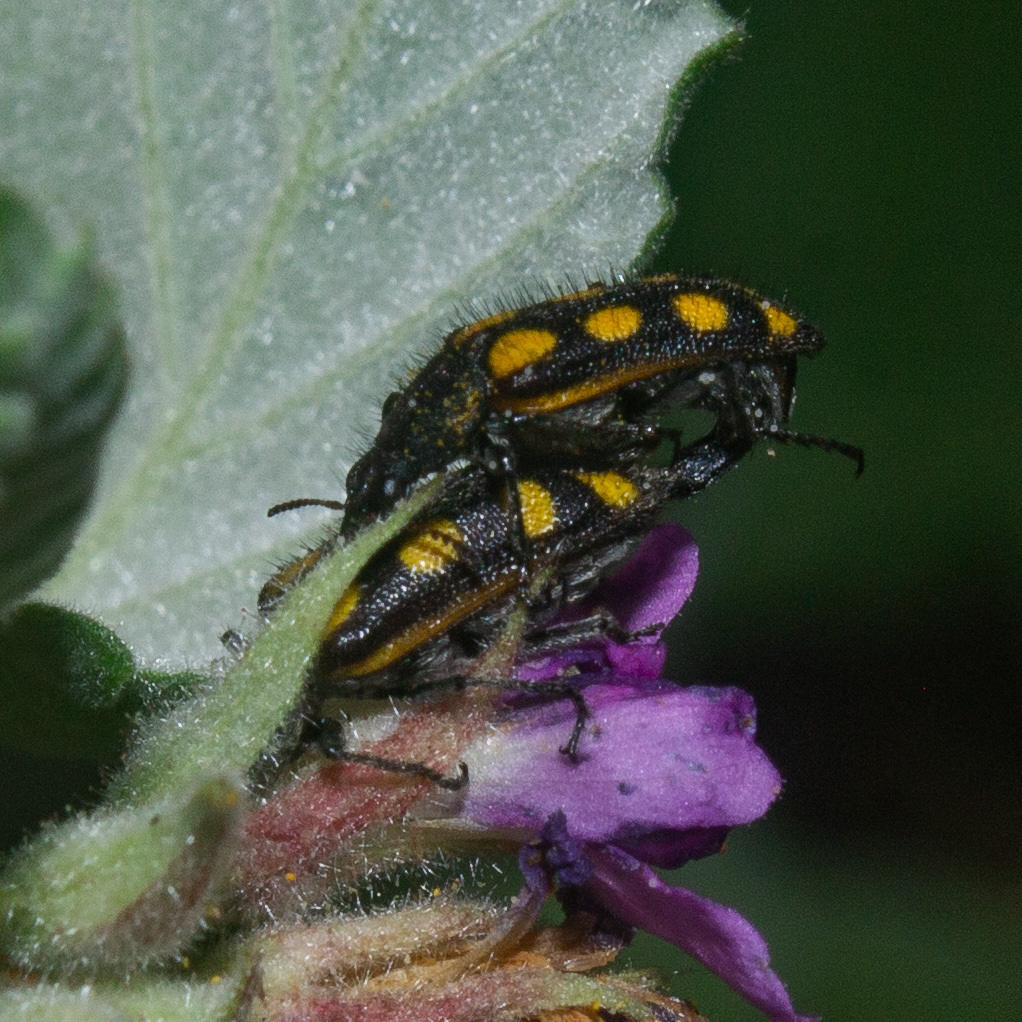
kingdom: Animalia
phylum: Arthropoda
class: Insecta
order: Coleoptera
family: Melyridae
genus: Astylus
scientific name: Astylus
